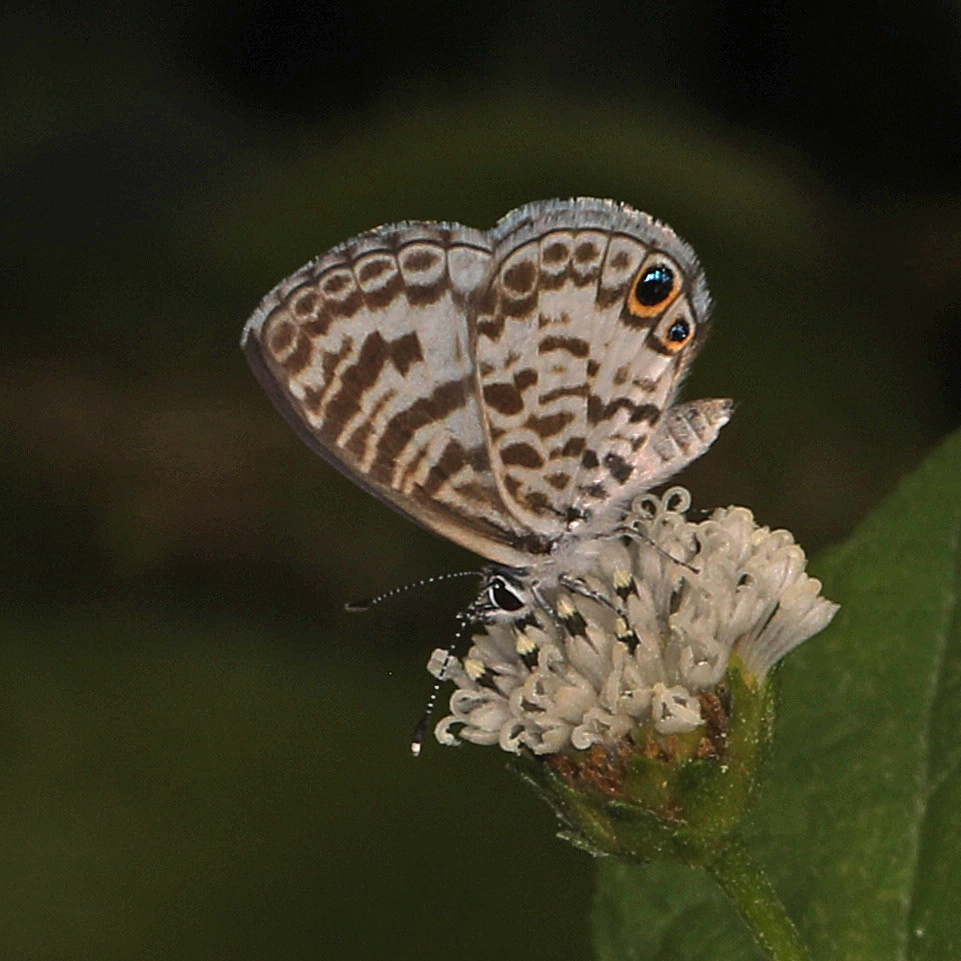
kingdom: Animalia
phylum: Arthropoda
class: Insecta
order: Lepidoptera
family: Lycaenidae
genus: Leptotes
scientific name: Leptotes cassius
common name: Cassius blue
